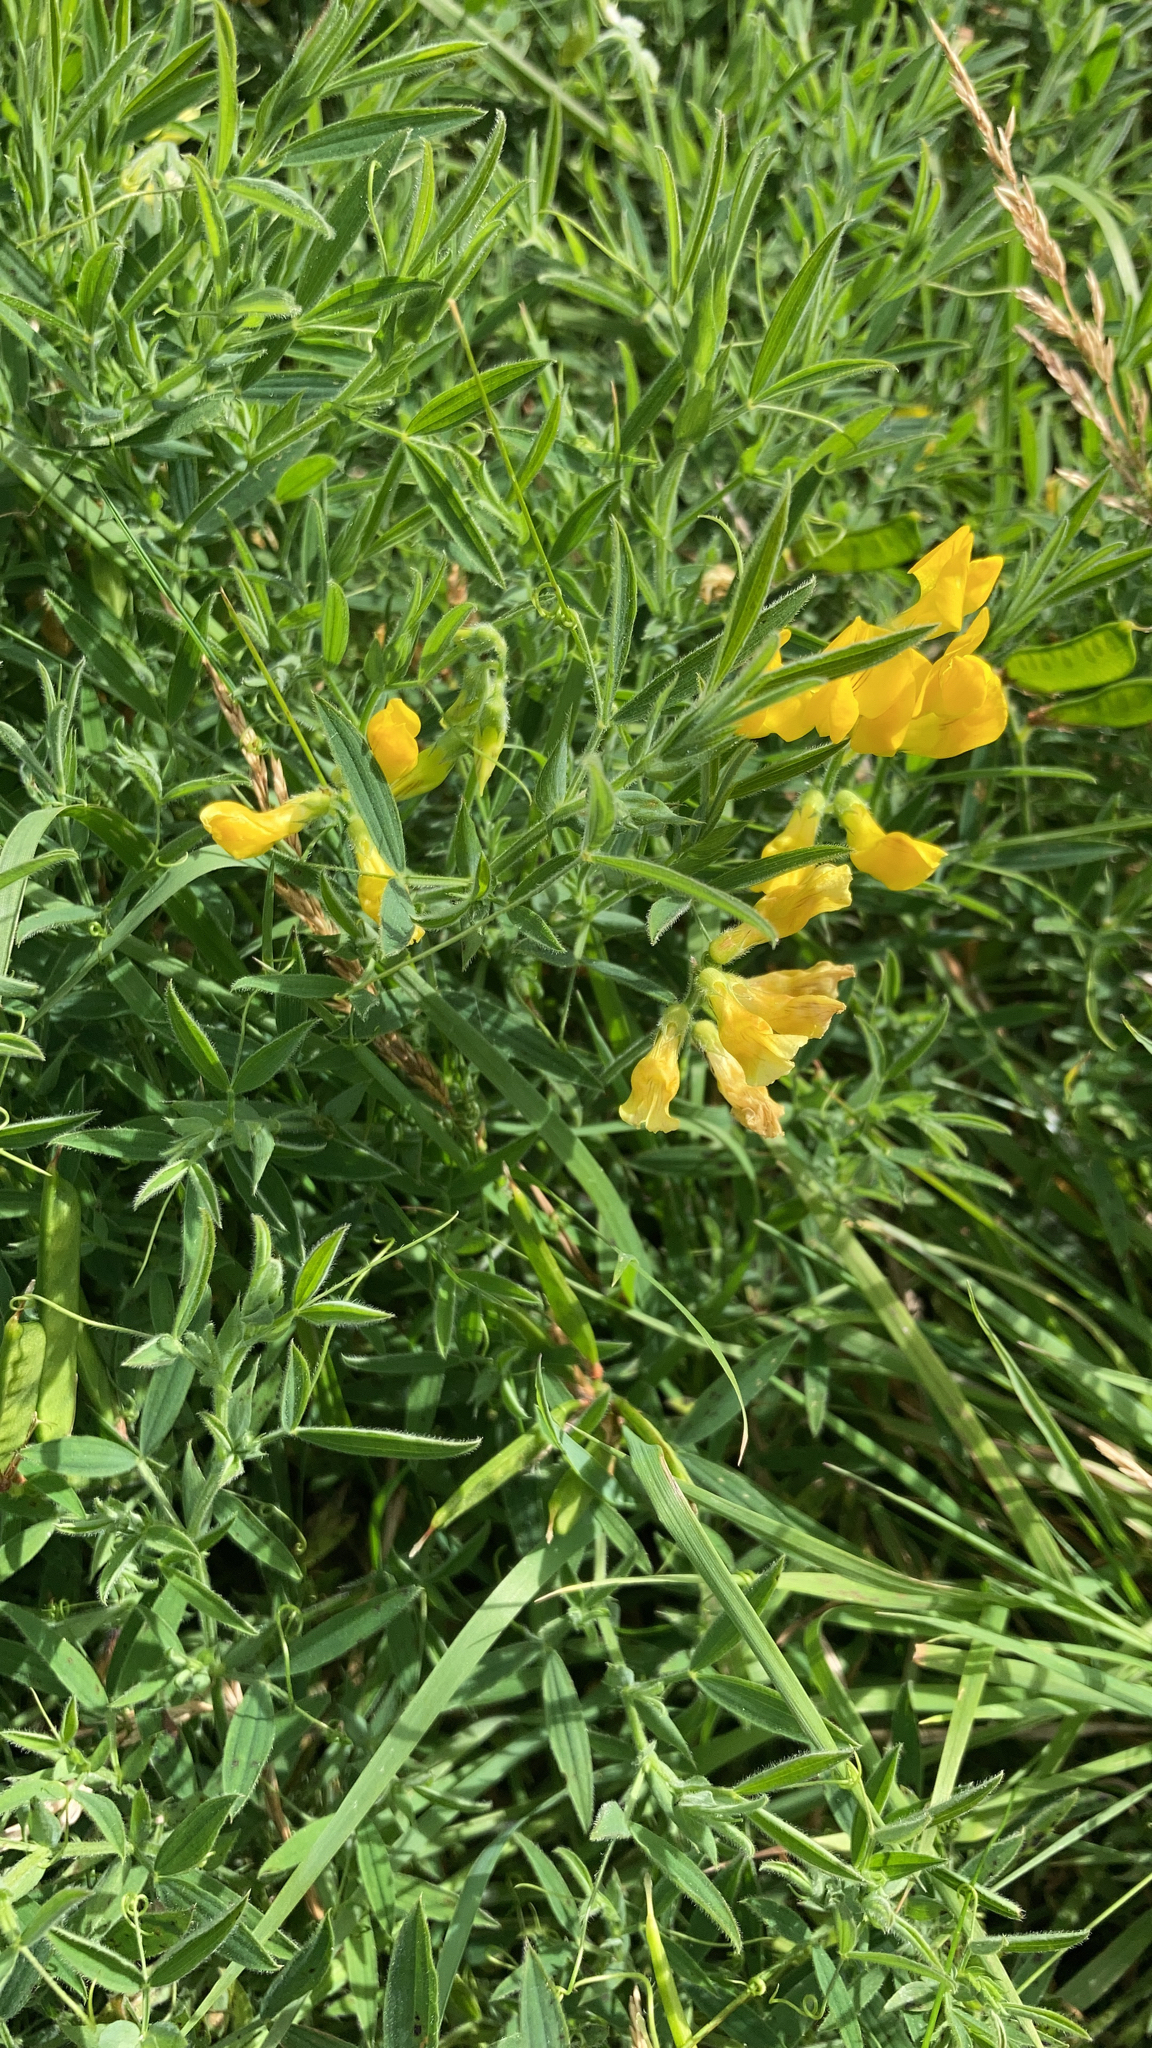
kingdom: Plantae
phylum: Tracheophyta
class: Magnoliopsida
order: Fabales
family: Fabaceae
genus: Lathyrus
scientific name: Lathyrus pratensis
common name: Meadow vetchling
